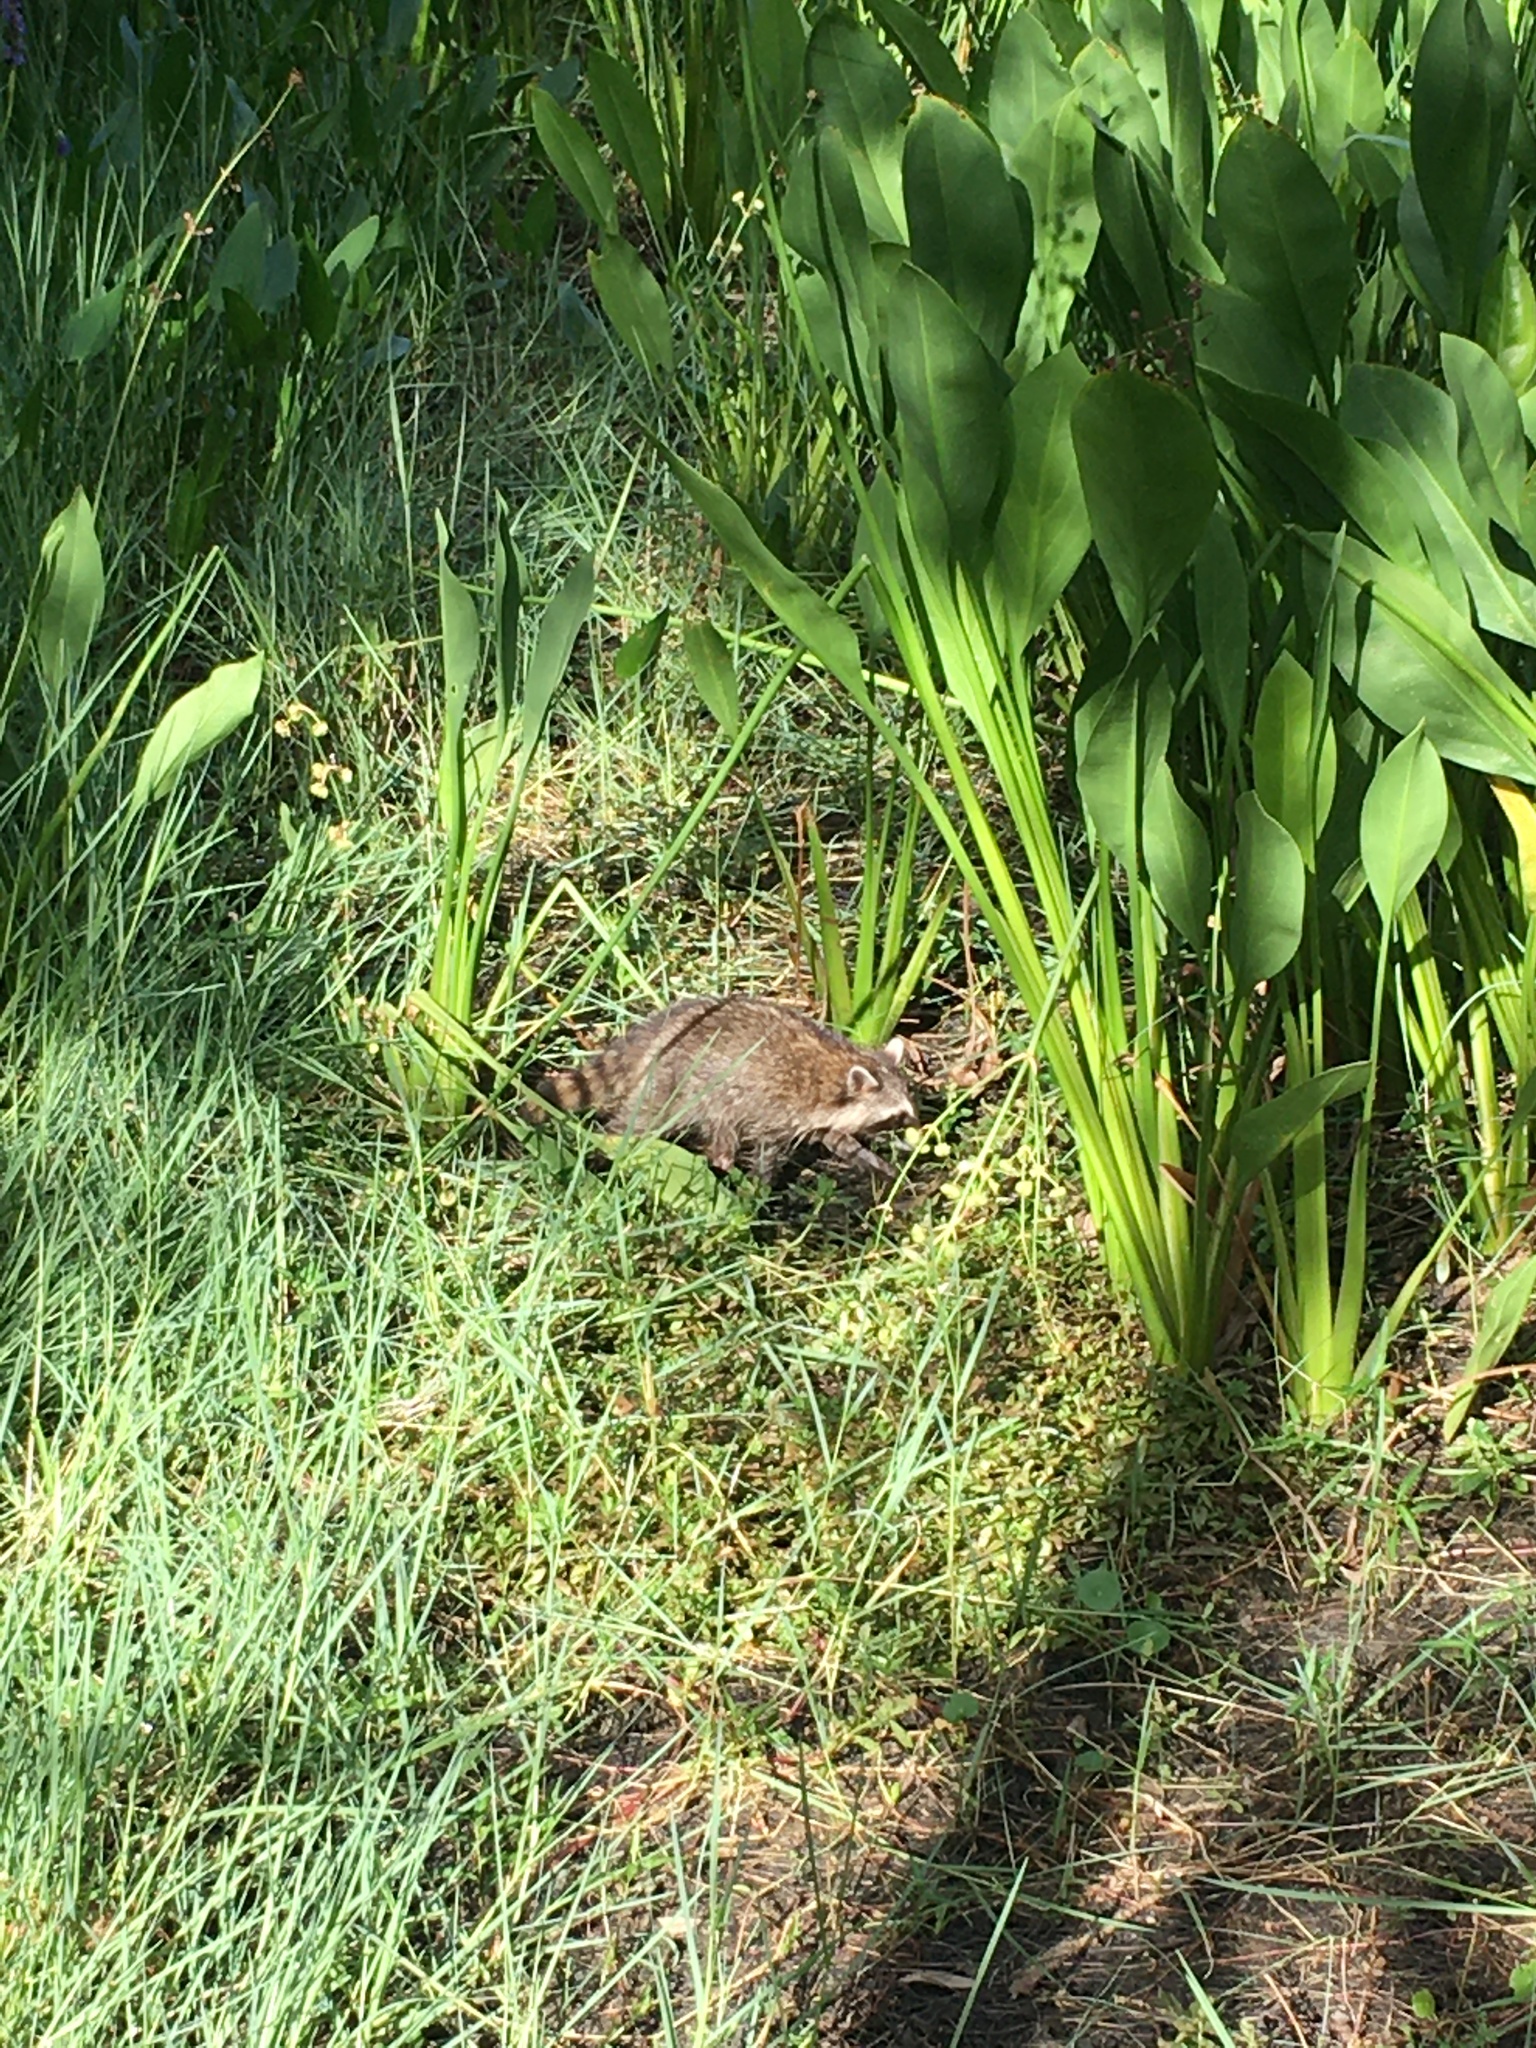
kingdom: Animalia
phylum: Chordata
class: Mammalia
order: Carnivora
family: Procyonidae
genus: Procyon
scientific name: Procyon lotor
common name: Raccoon
